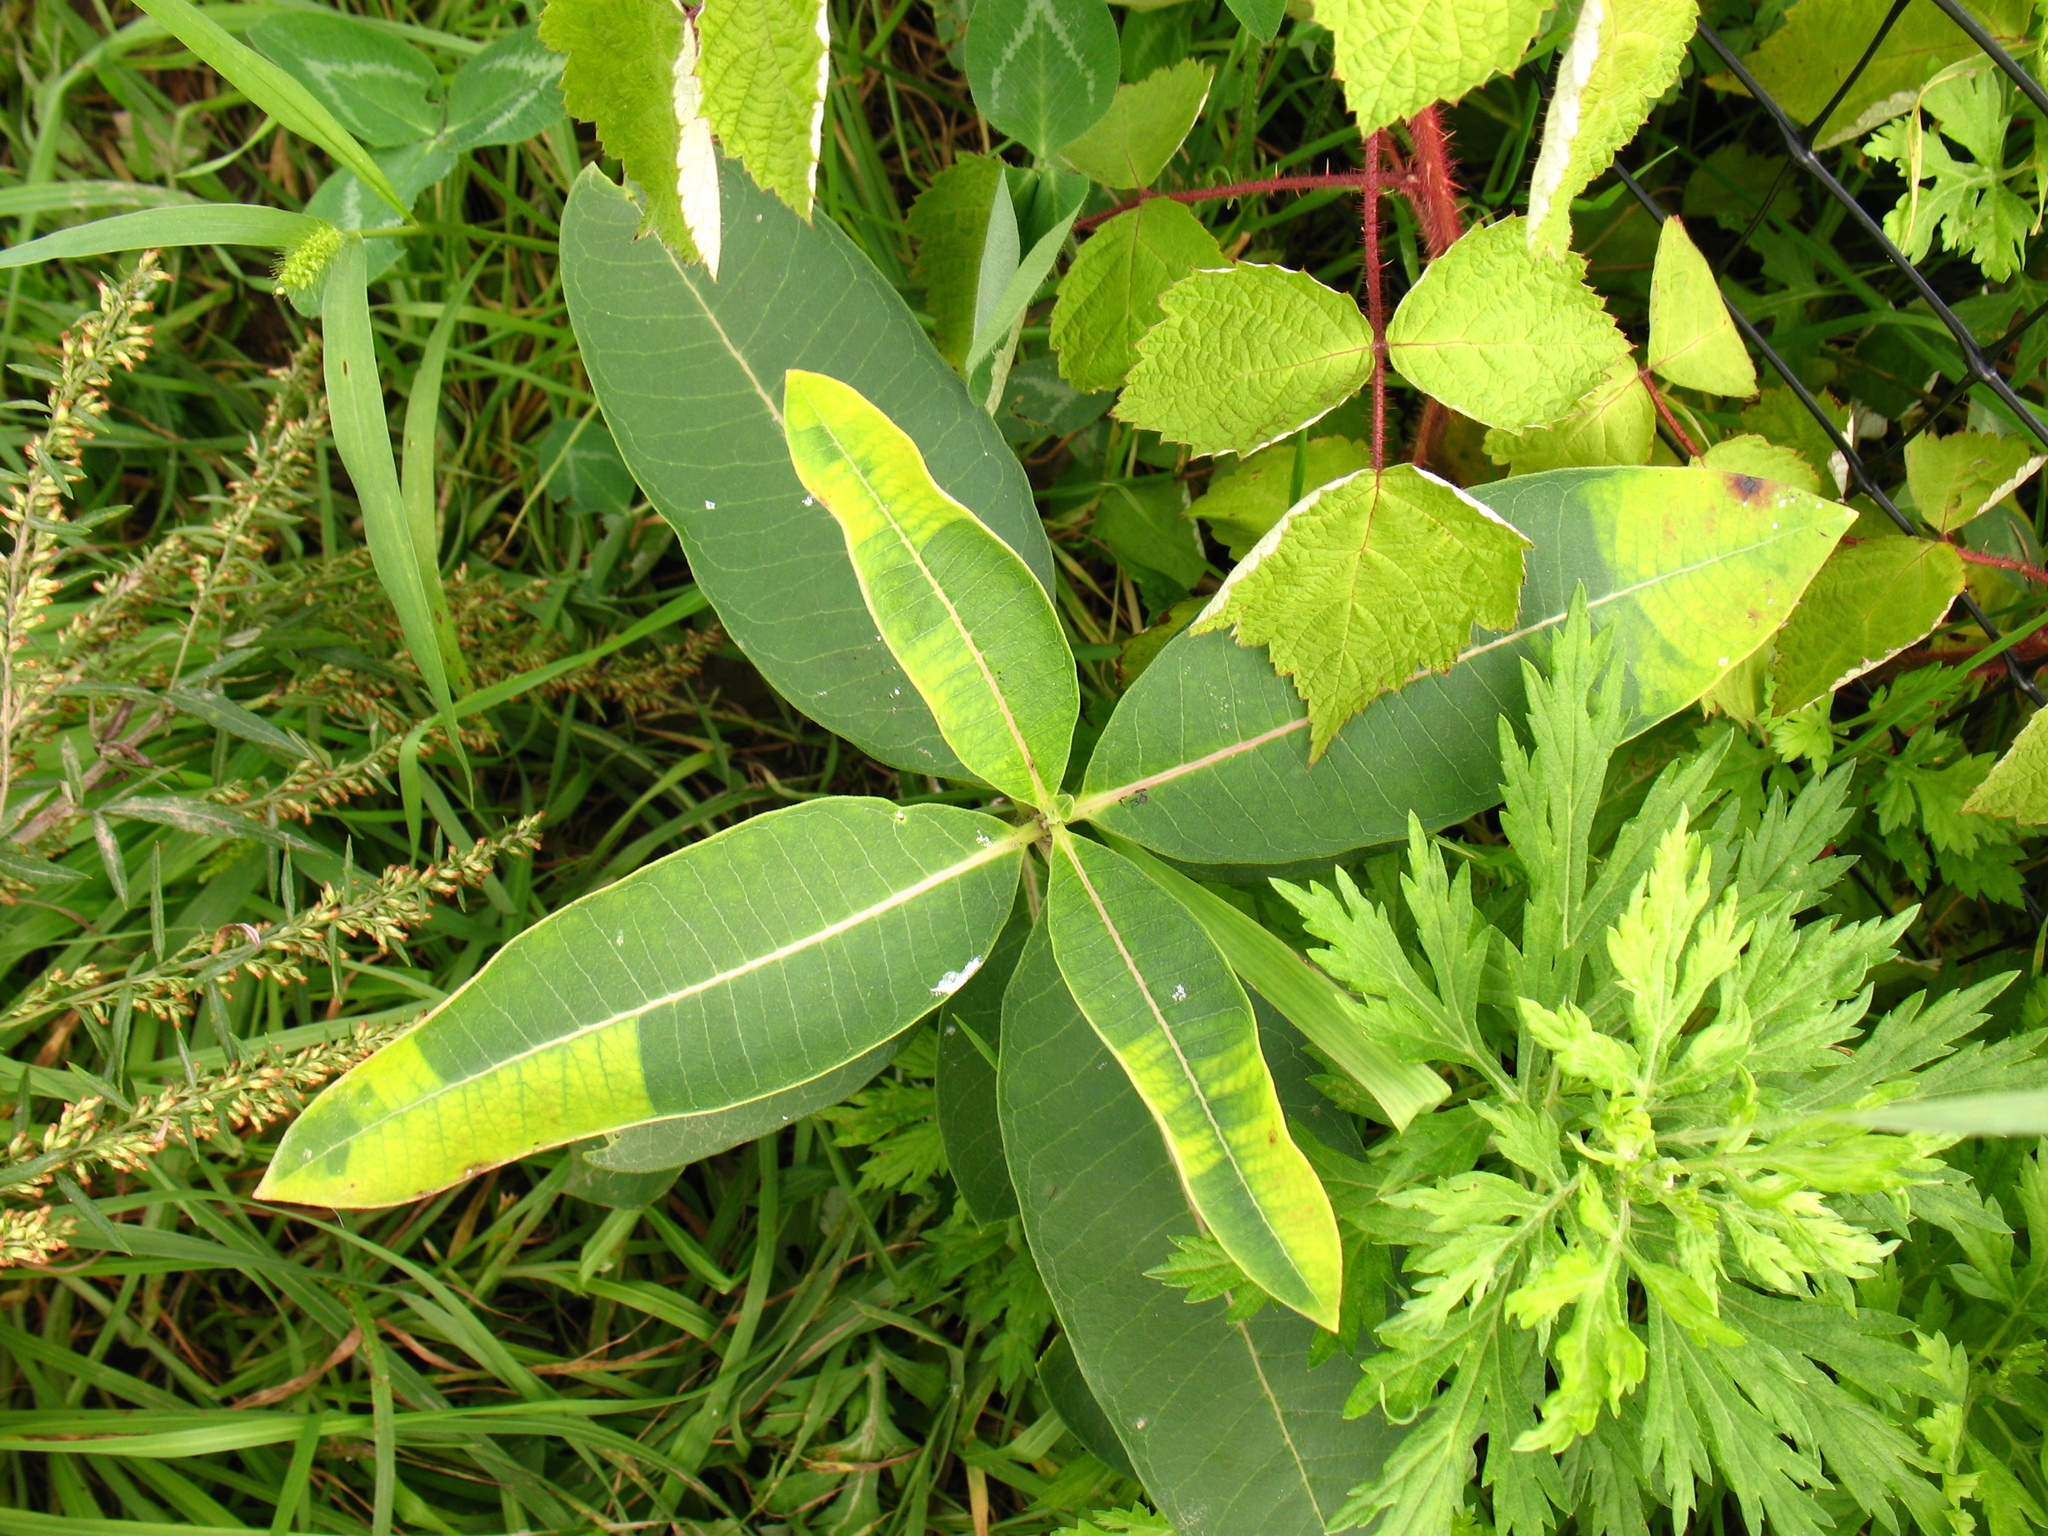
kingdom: Plantae
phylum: Tracheophyta
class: Magnoliopsida
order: Gentianales
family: Apocynaceae
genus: Asclepias
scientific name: Asclepias syriaca
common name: Common milkweed
